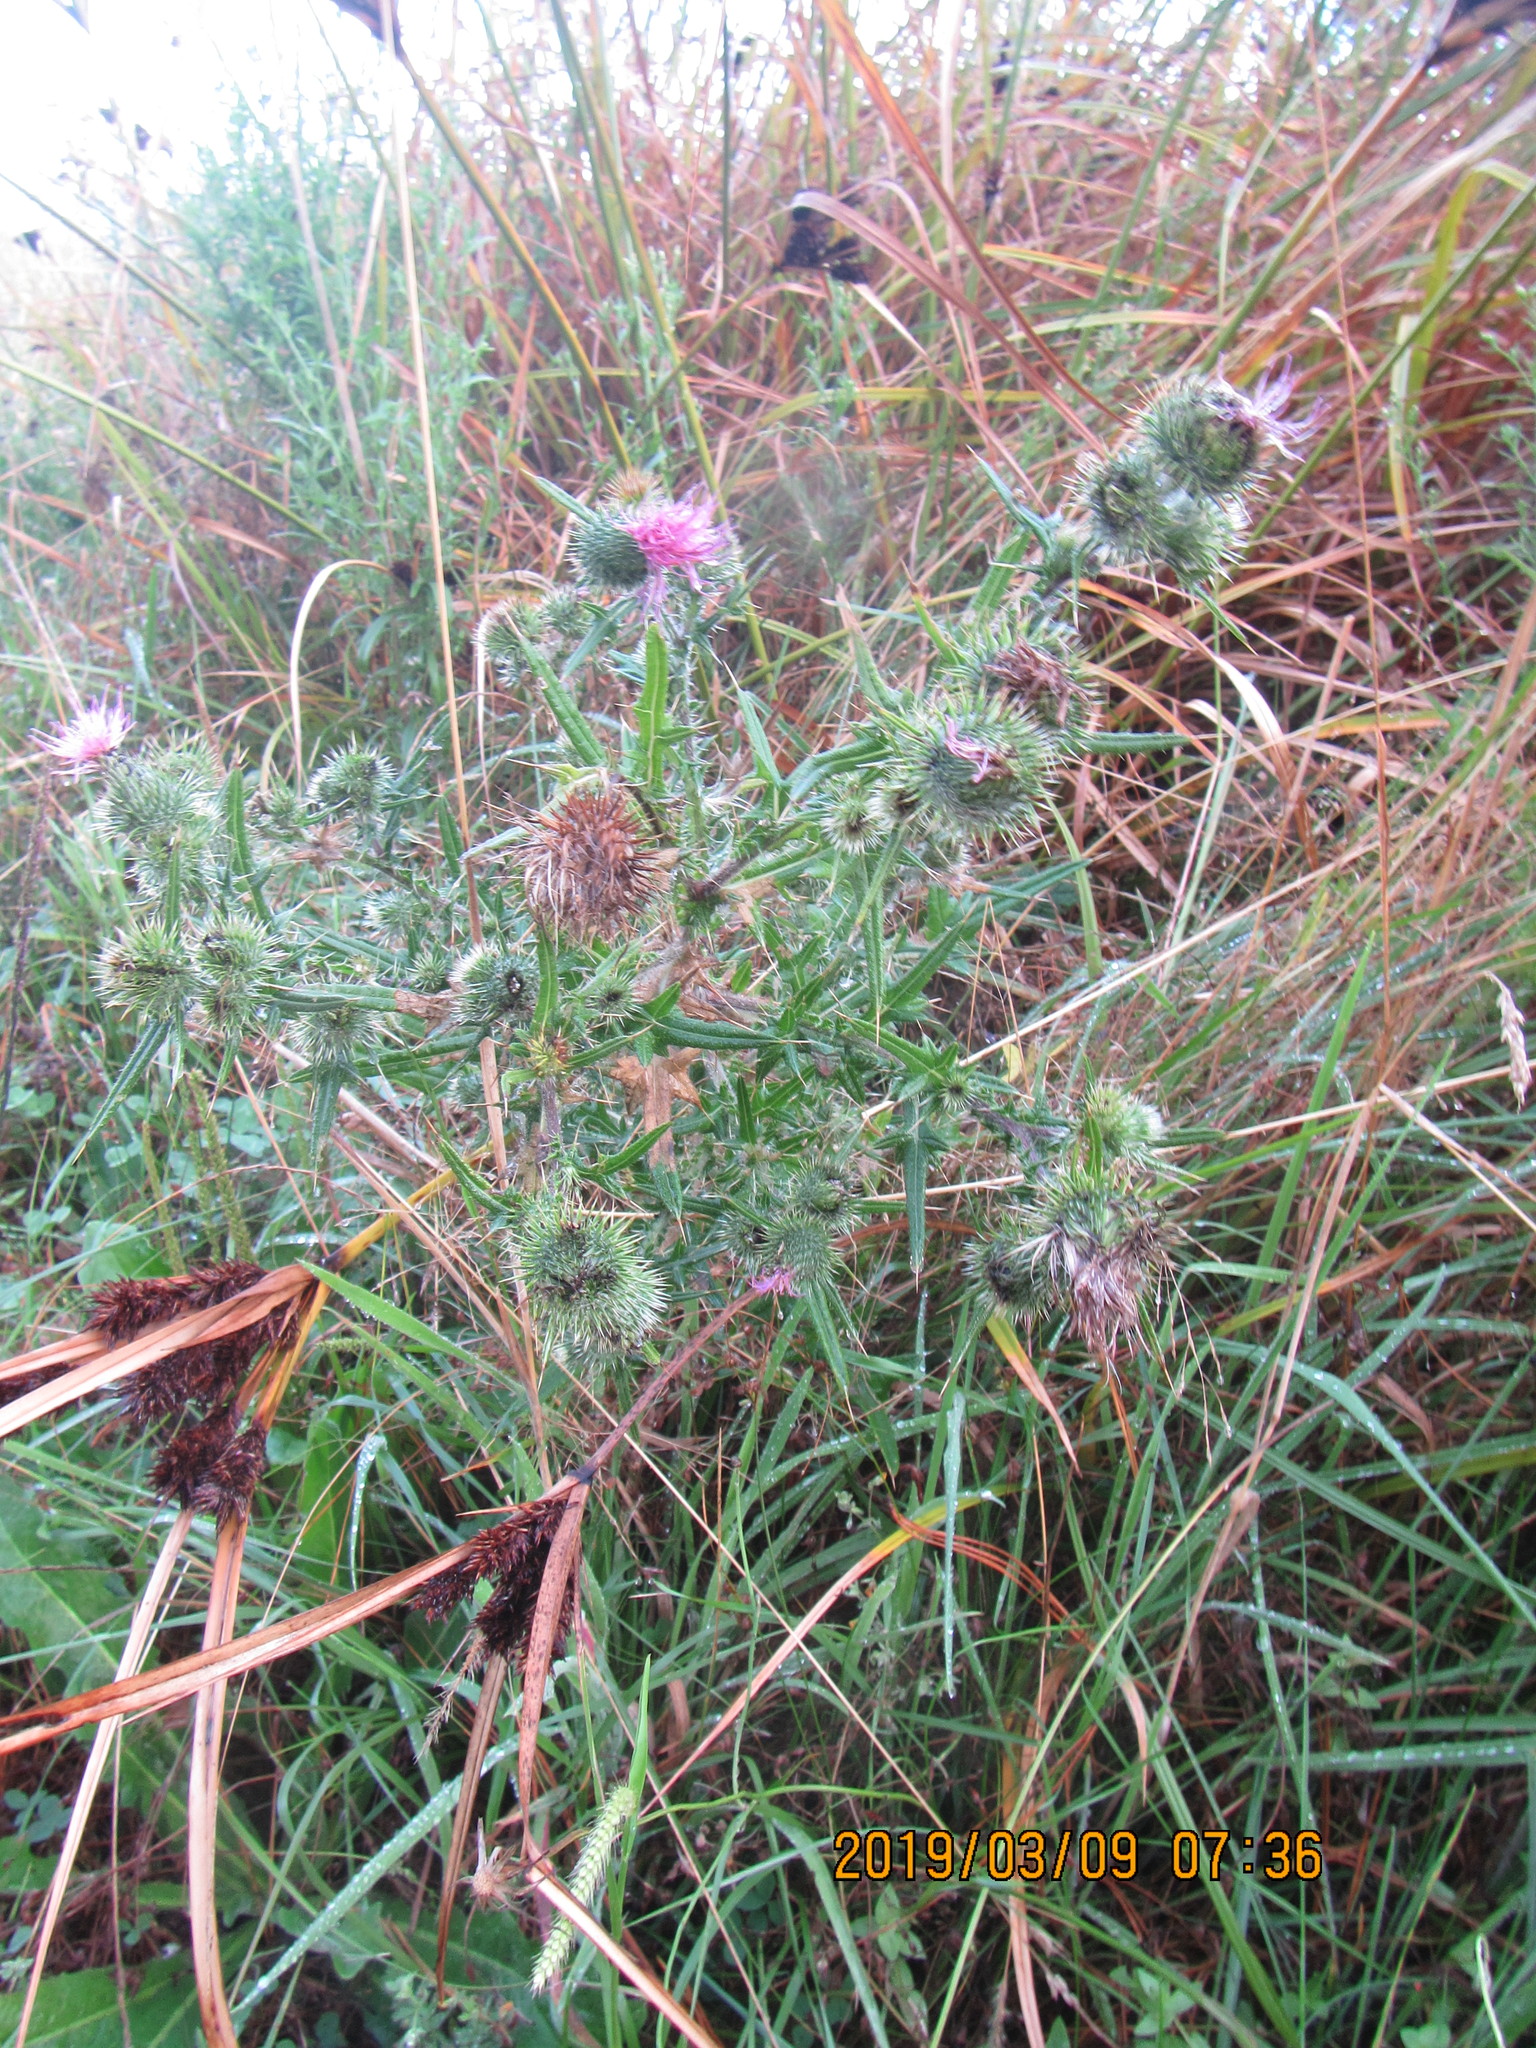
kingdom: Plantae
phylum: Tracheophyta
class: Magnoliopsida
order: Asterales
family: Asteraceae
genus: Cirsium
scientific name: Cirsium vulgare
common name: Bull thistle
